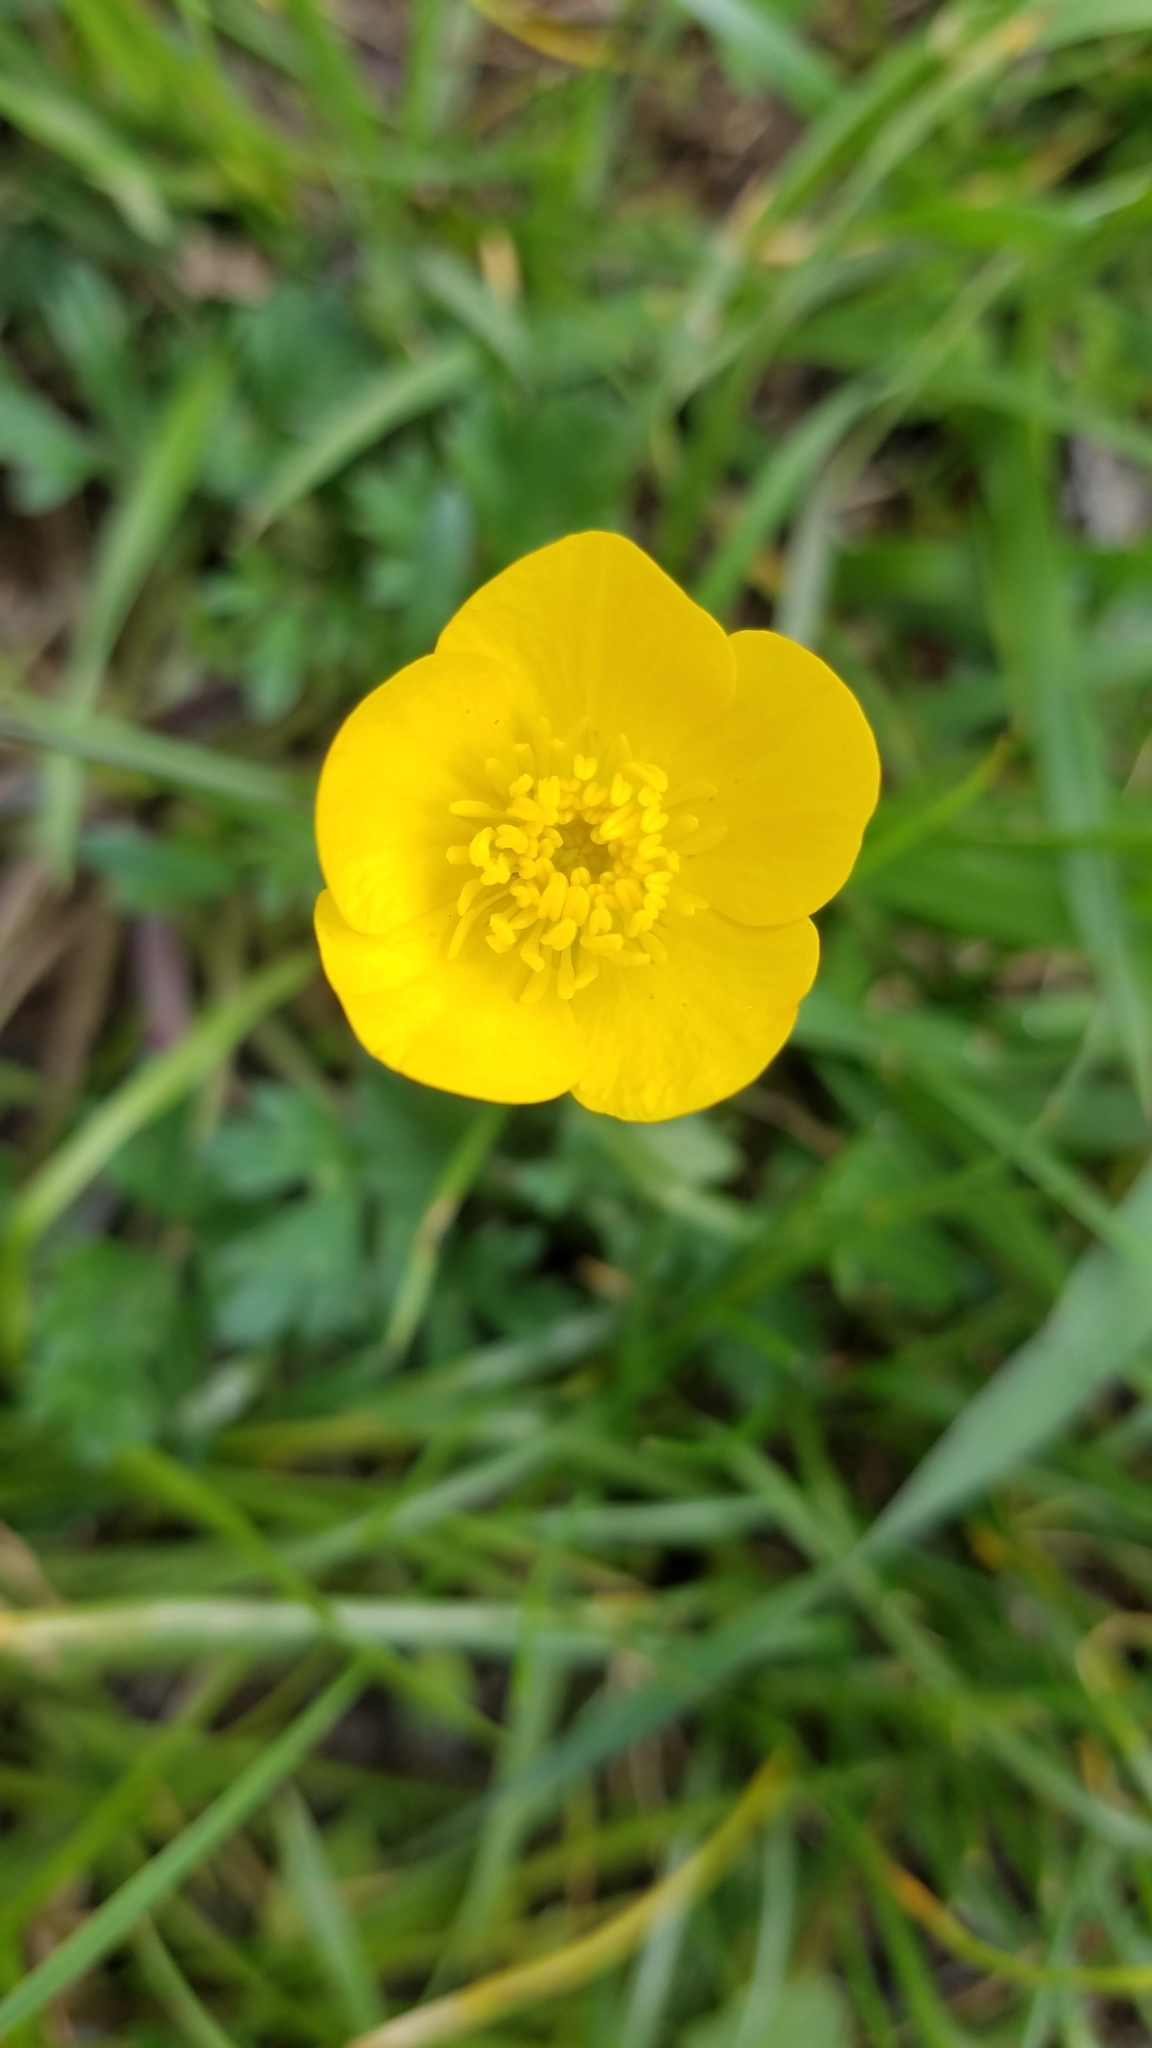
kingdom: Plantae
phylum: Tracheophyta
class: Magnoliopsida
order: Ranunculales
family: Ranunculaceae
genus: Ranunculus
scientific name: Ranunculus bulbosus
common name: Bulbous buttercup
